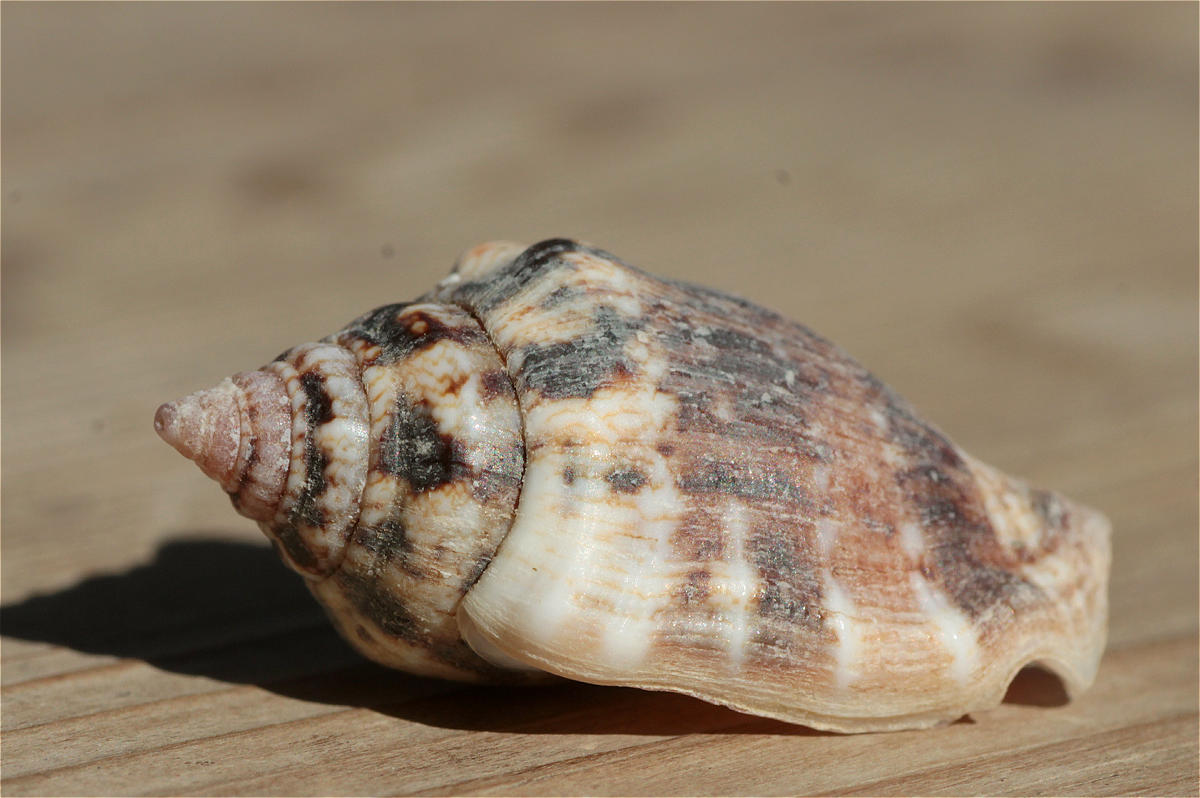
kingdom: Animalia
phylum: Mollusca
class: Gastropoda
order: Littorinimorpha
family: Strombidae
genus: Canarium
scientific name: Canarium mutabile
